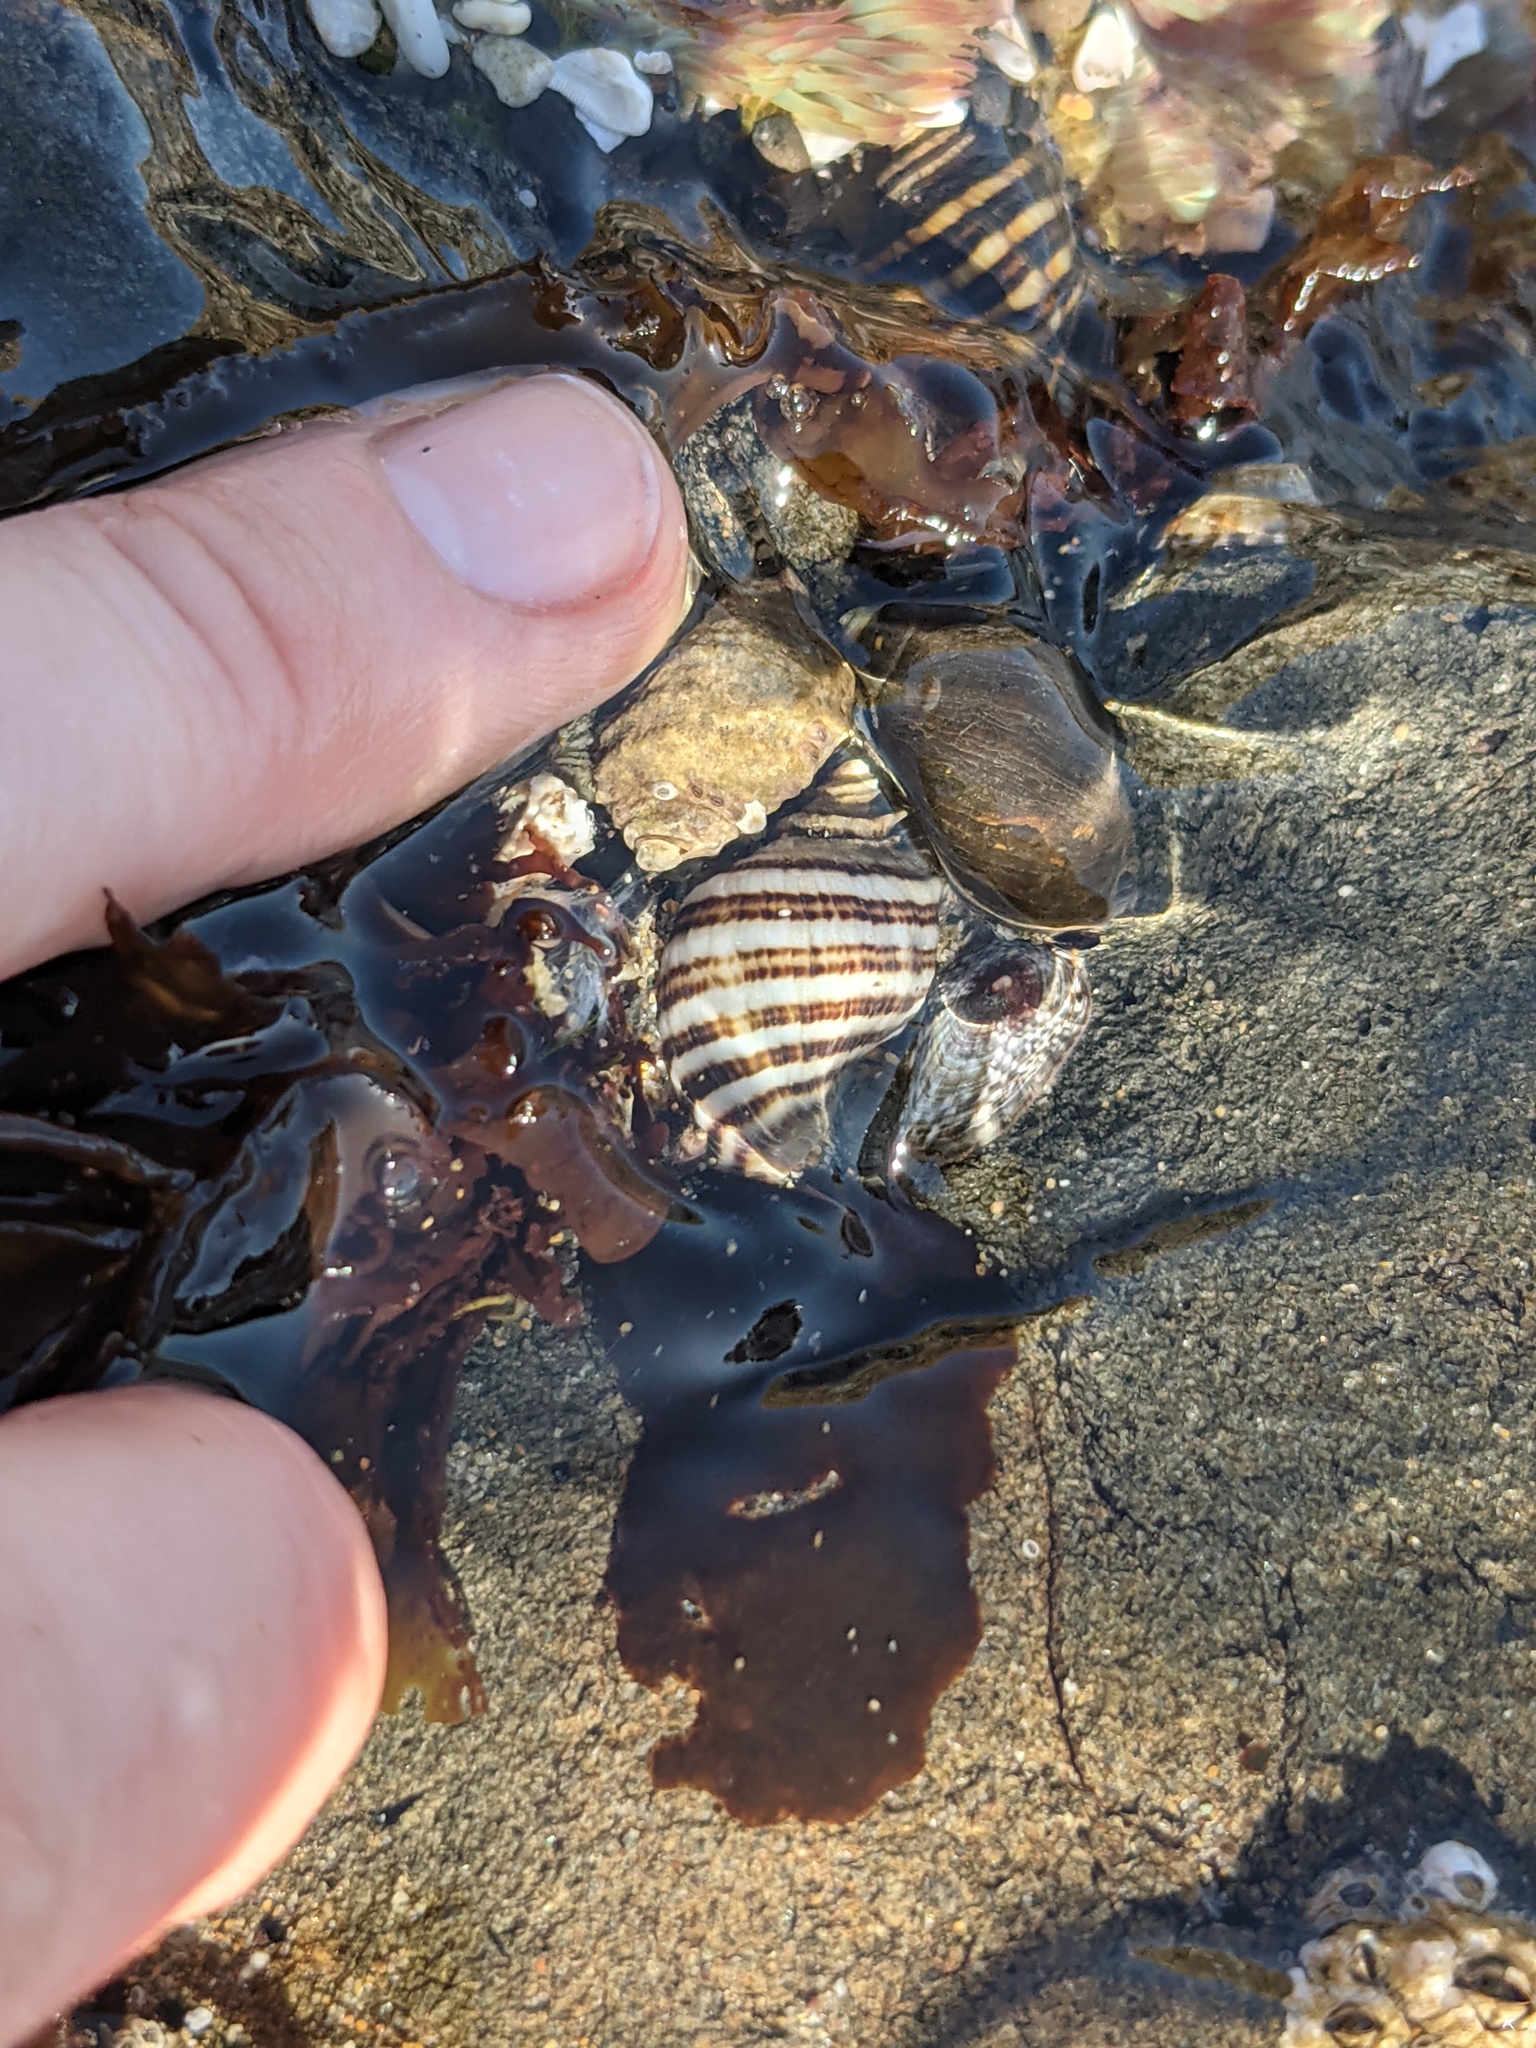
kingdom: Animalia
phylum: Mollusca
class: Gastropoda
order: Neogastropoda
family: Muricidae
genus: Nucella
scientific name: Nucella ostrina
